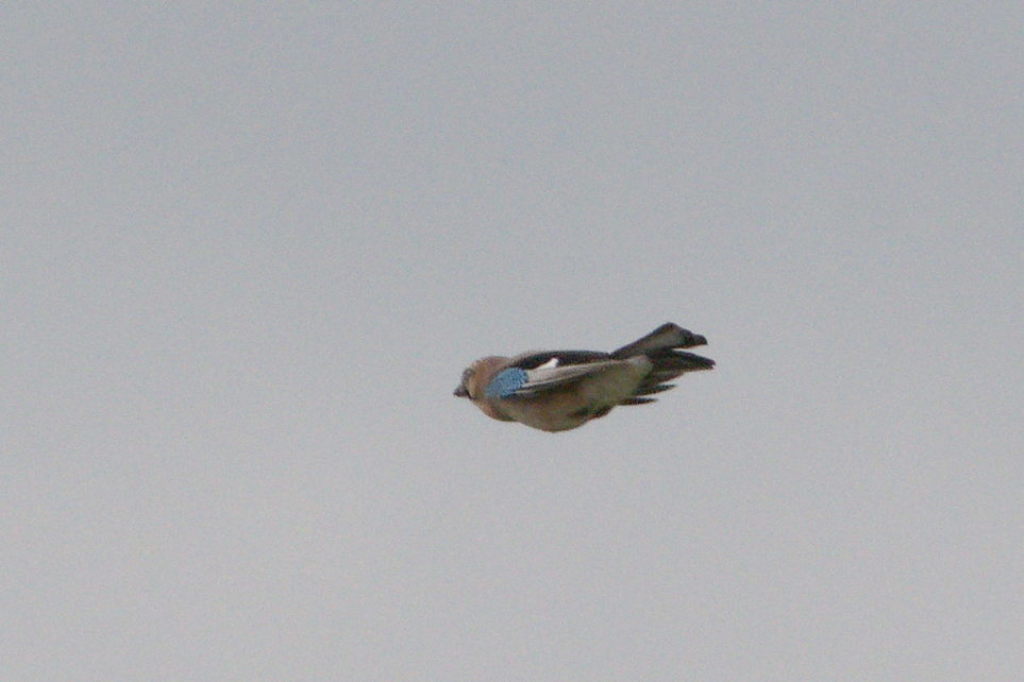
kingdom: Animalia
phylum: Chordata
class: Aves
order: Passeriformes
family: Corvidae
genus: Garrulus
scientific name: Garrulus glandarius
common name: Eurasian jay
